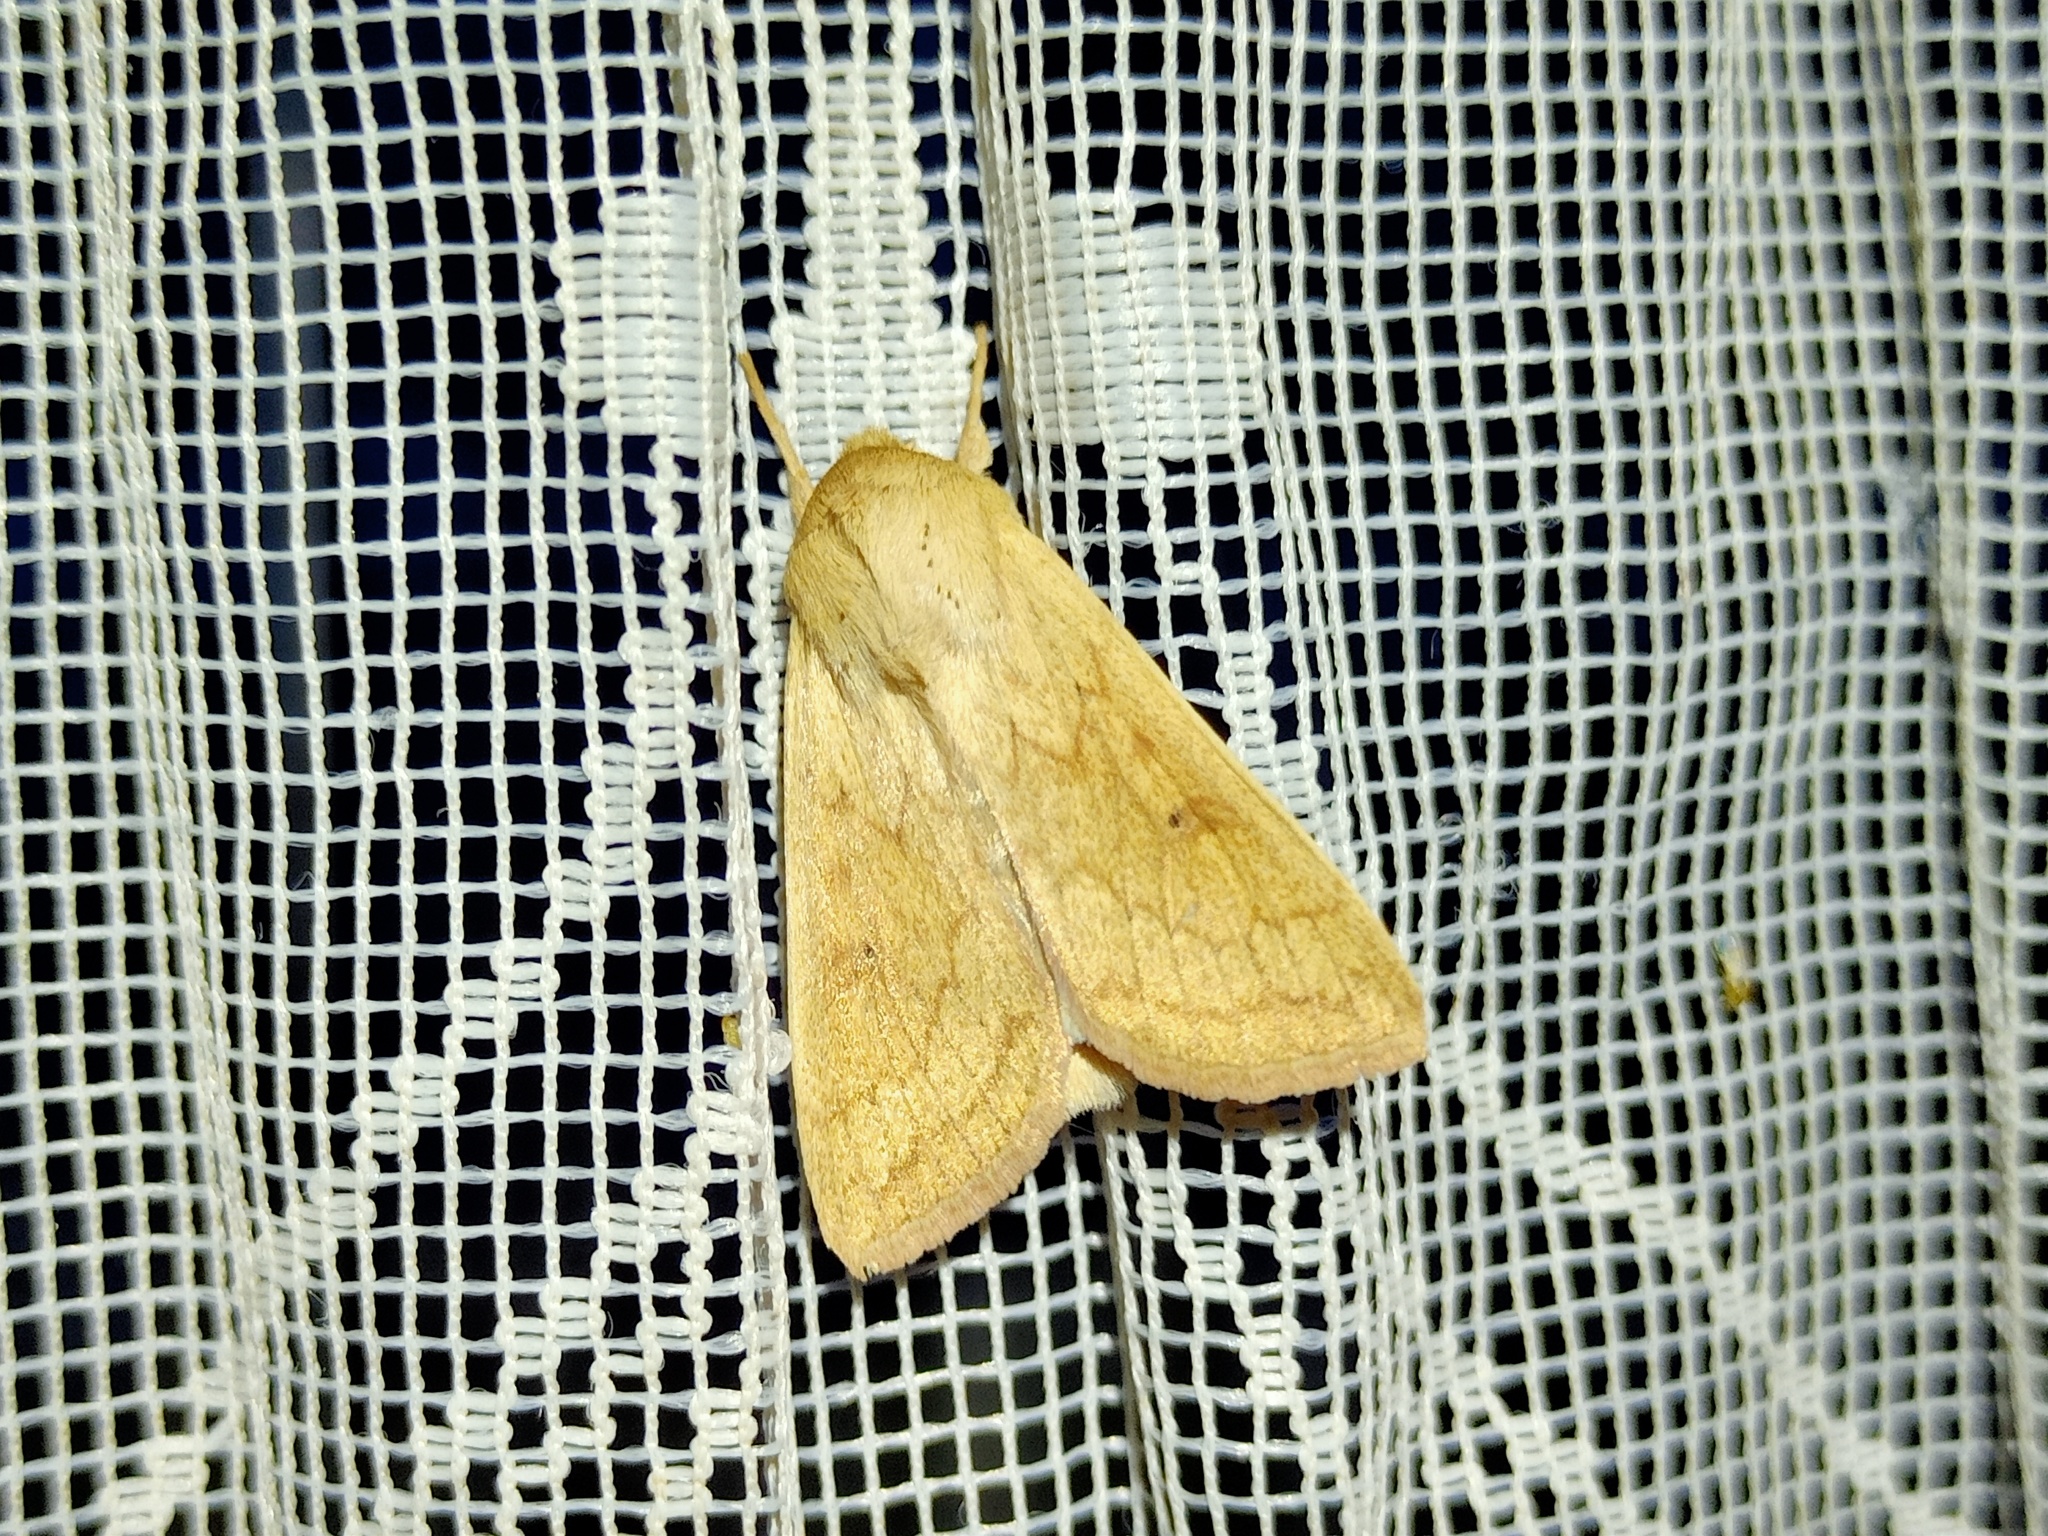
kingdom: Animalia
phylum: Arthropoda
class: Insecta
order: Lepidoptera
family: Noctuidae
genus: Mythimna
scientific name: Mythimna vitellina
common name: Delicate
